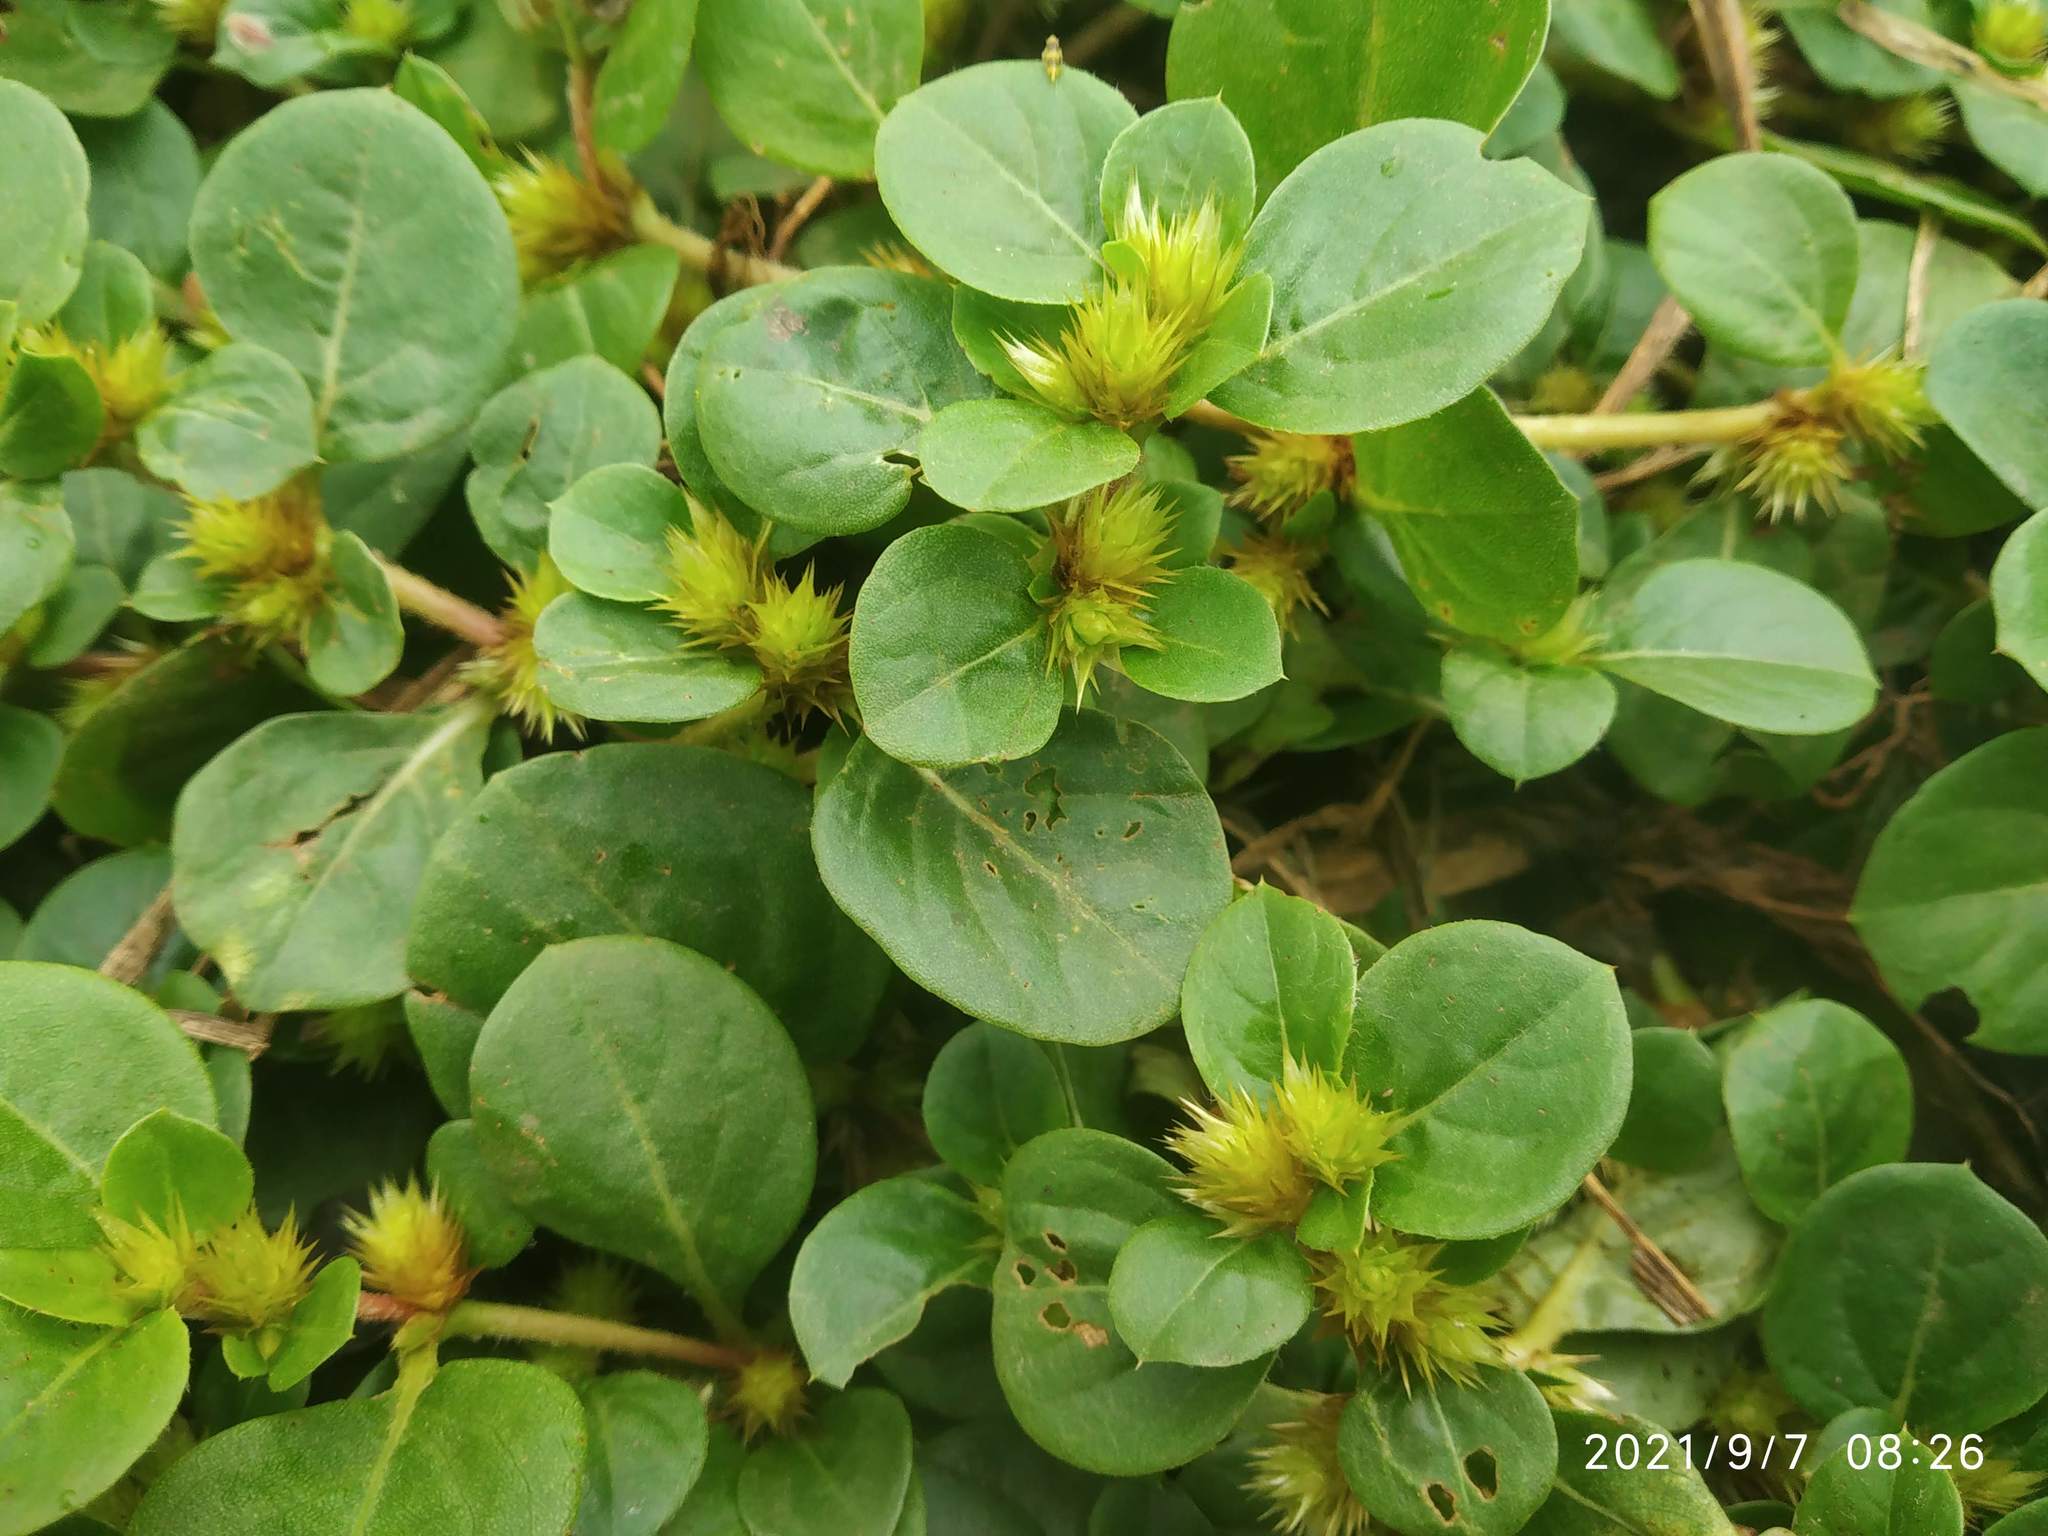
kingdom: Plantae
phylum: Tracheophyta
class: Magnoliopsida
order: Caryophyllales
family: Amaranthaceae
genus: Alternanthera
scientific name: Alternanthera pungens
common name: Khakiweed
